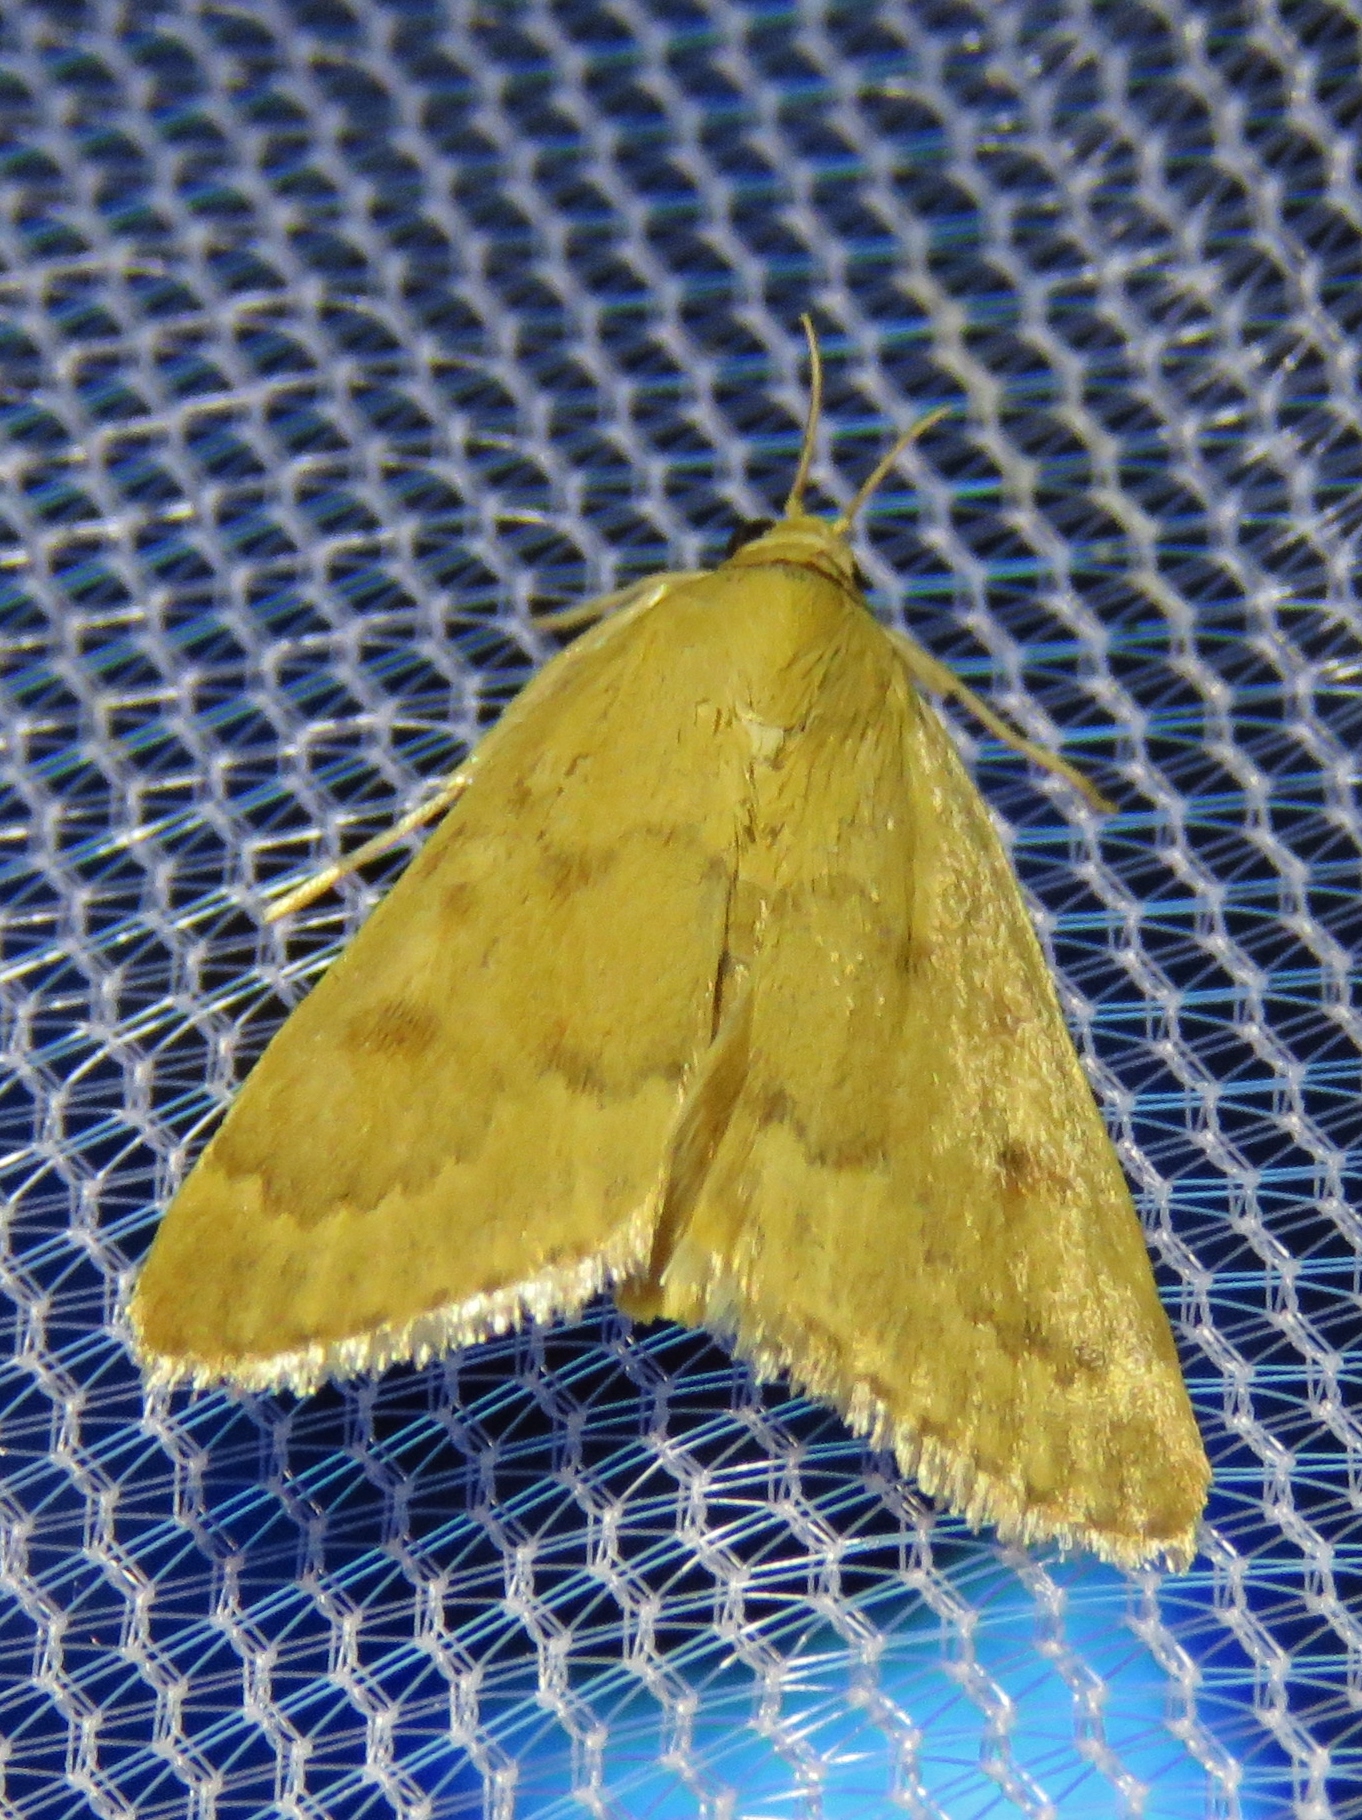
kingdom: Animalia
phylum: Arthropoda
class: Insecta
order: Lepidoptera
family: Crambidae
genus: Achyra
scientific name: Achyra rantalis
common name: Garden webworm
